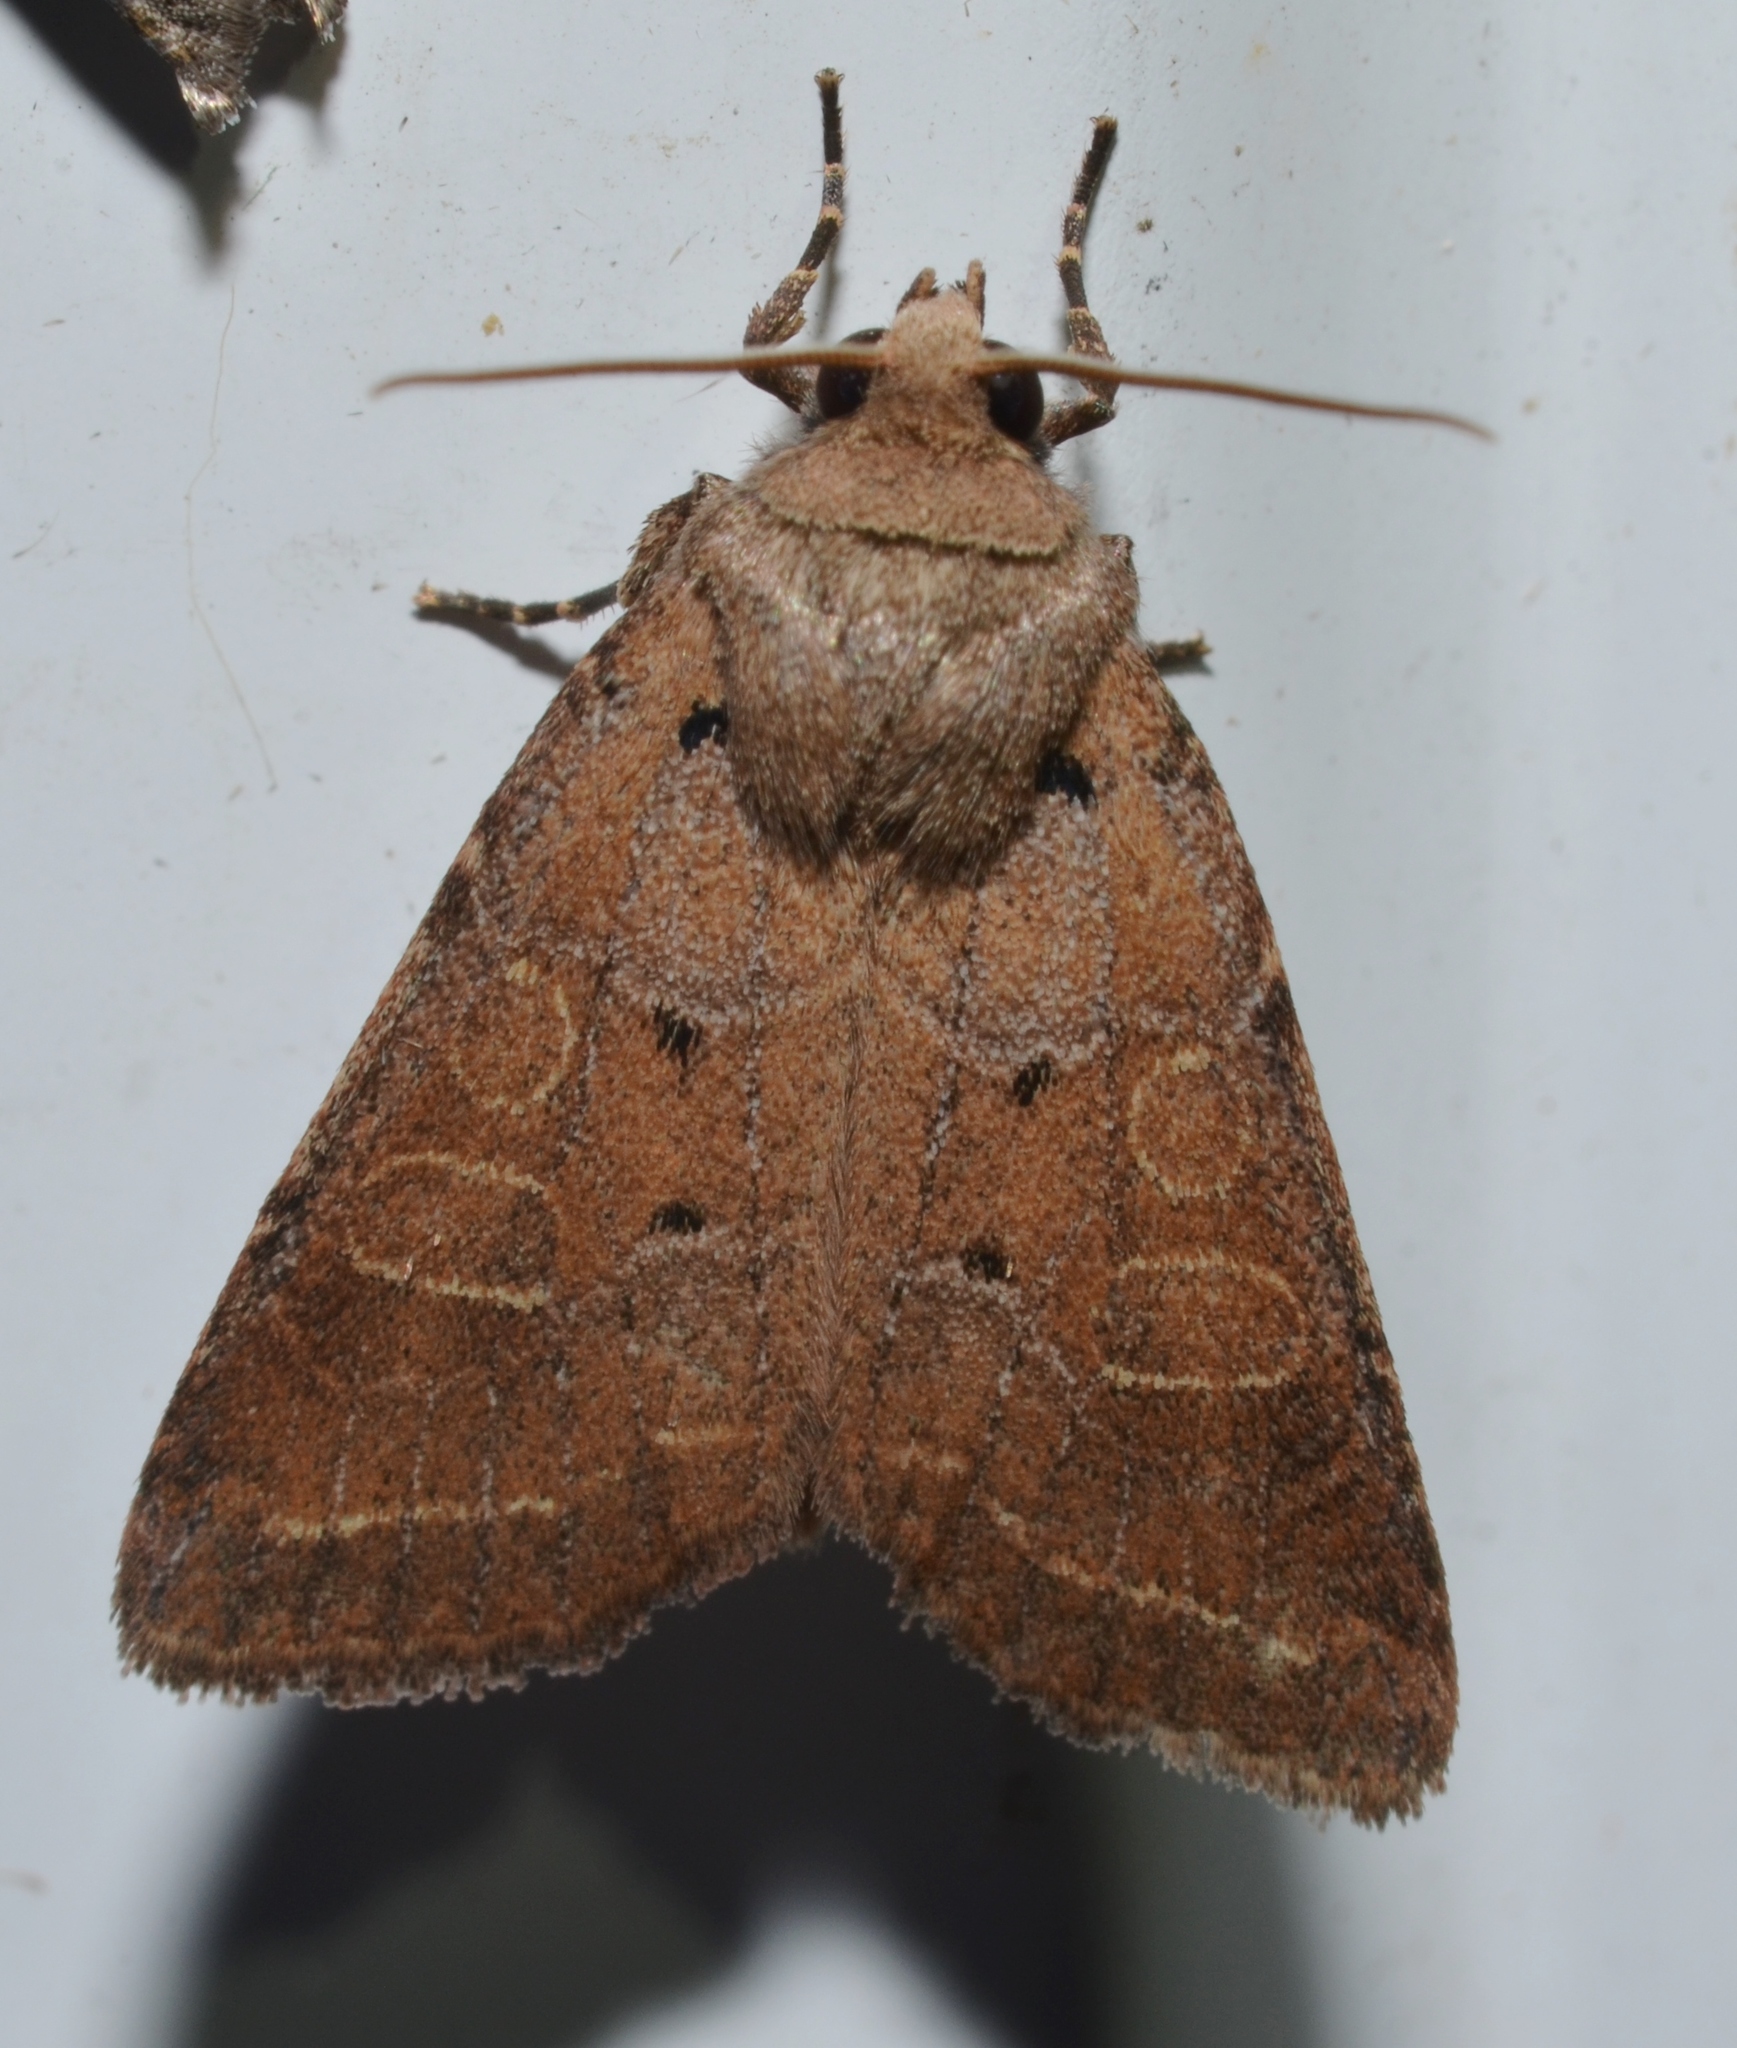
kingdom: Animalia
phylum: Arthropoda
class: Insecta
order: Lepidoptera
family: Noctuidae
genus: Kocakina
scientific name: Kocakina fidelis
